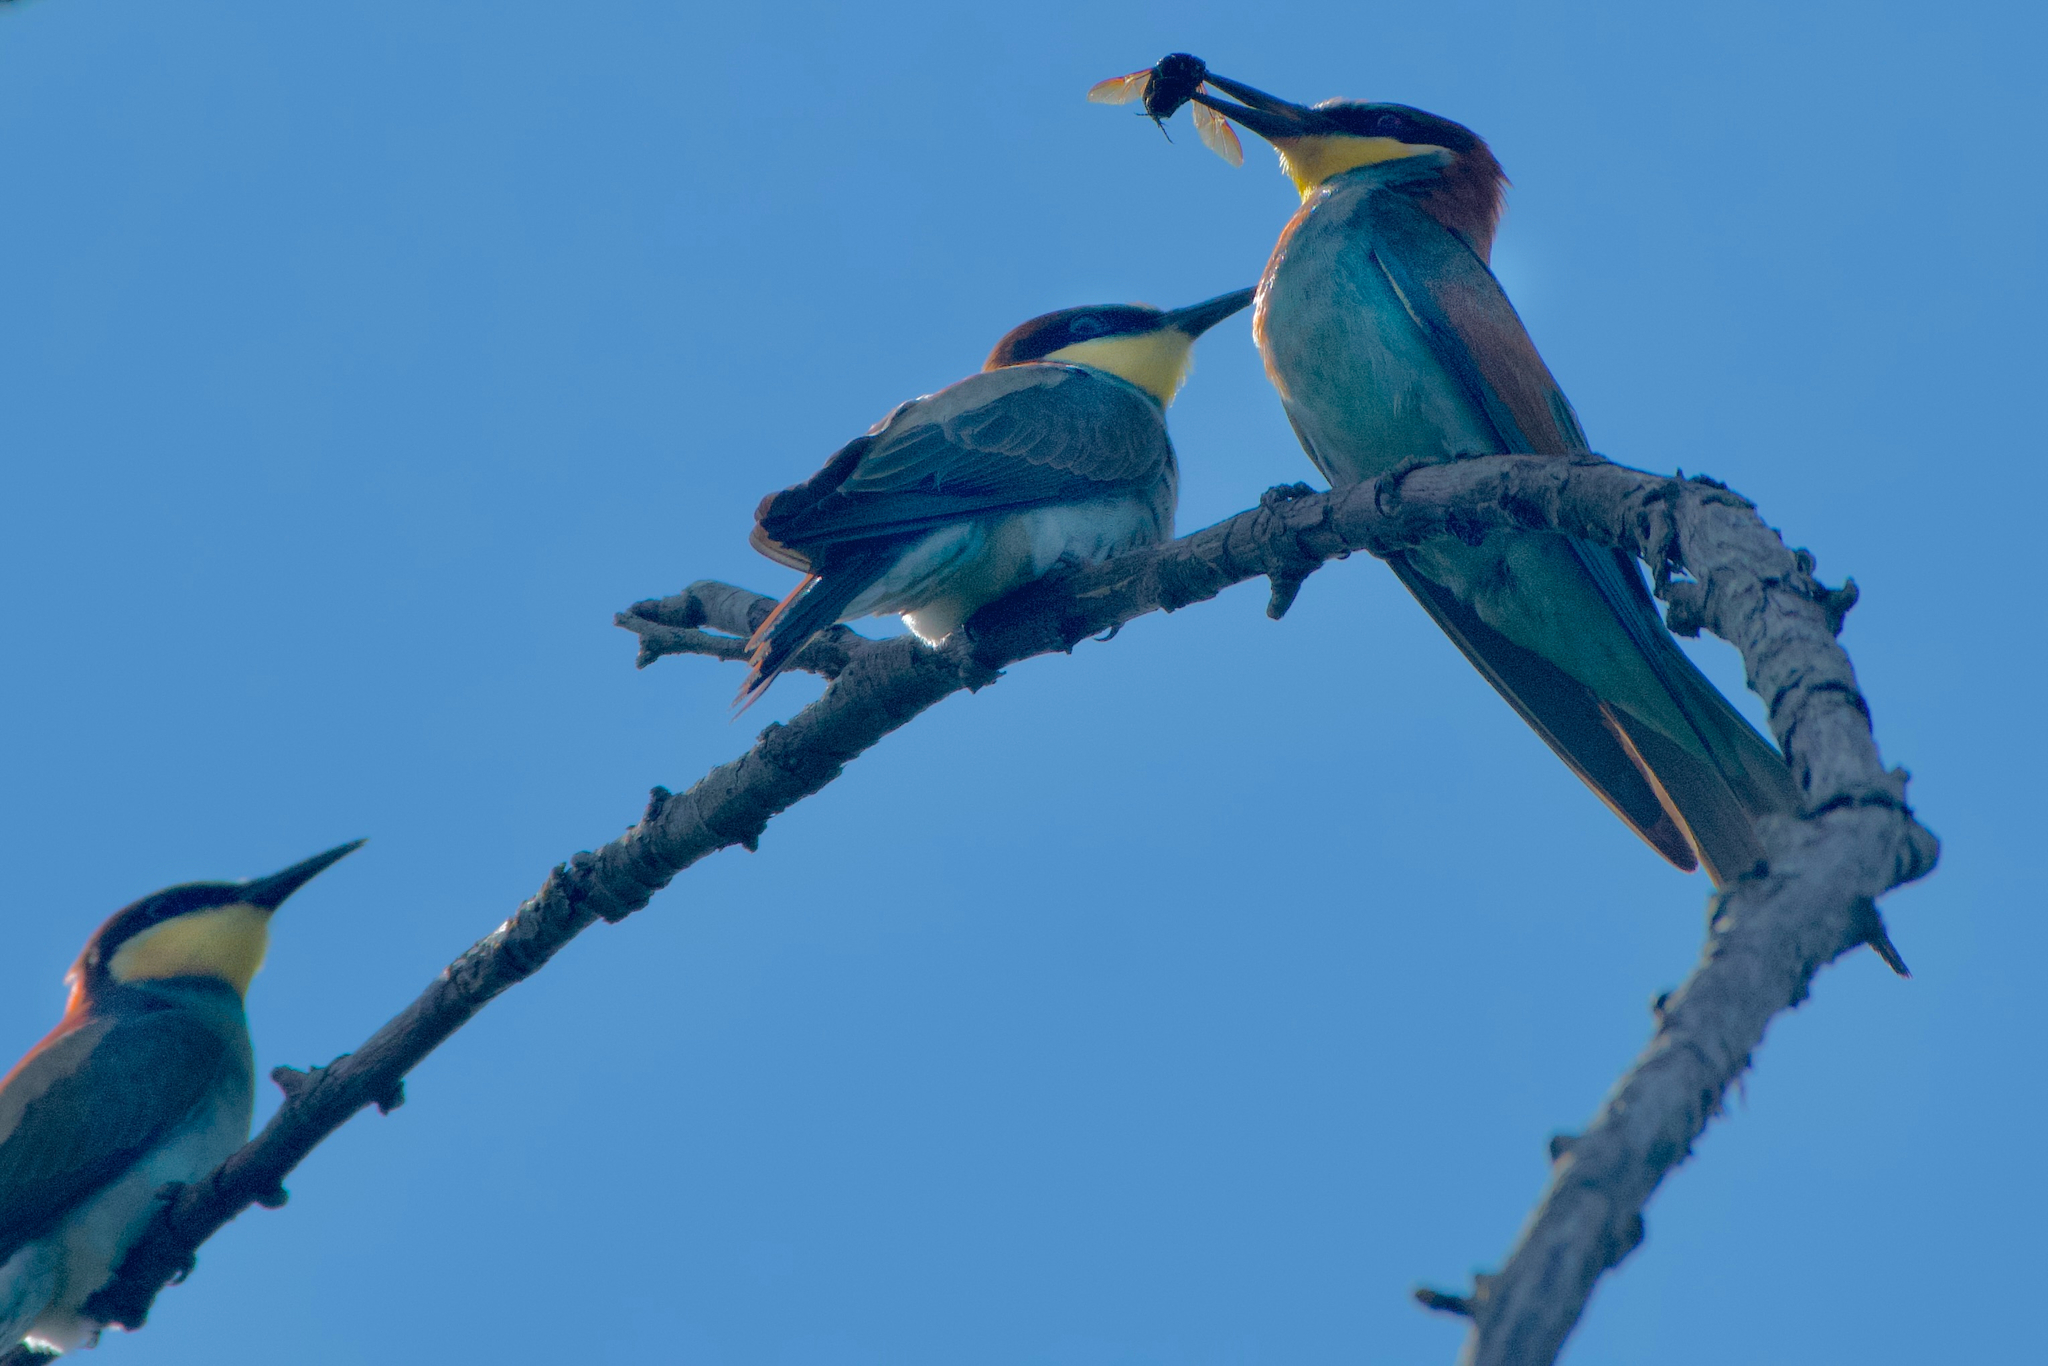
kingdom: Animalia
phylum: Chordata
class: Aves
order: Coraciiformes
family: Meropidae
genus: Merops
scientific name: Merops apiaster
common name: European bee-eater
